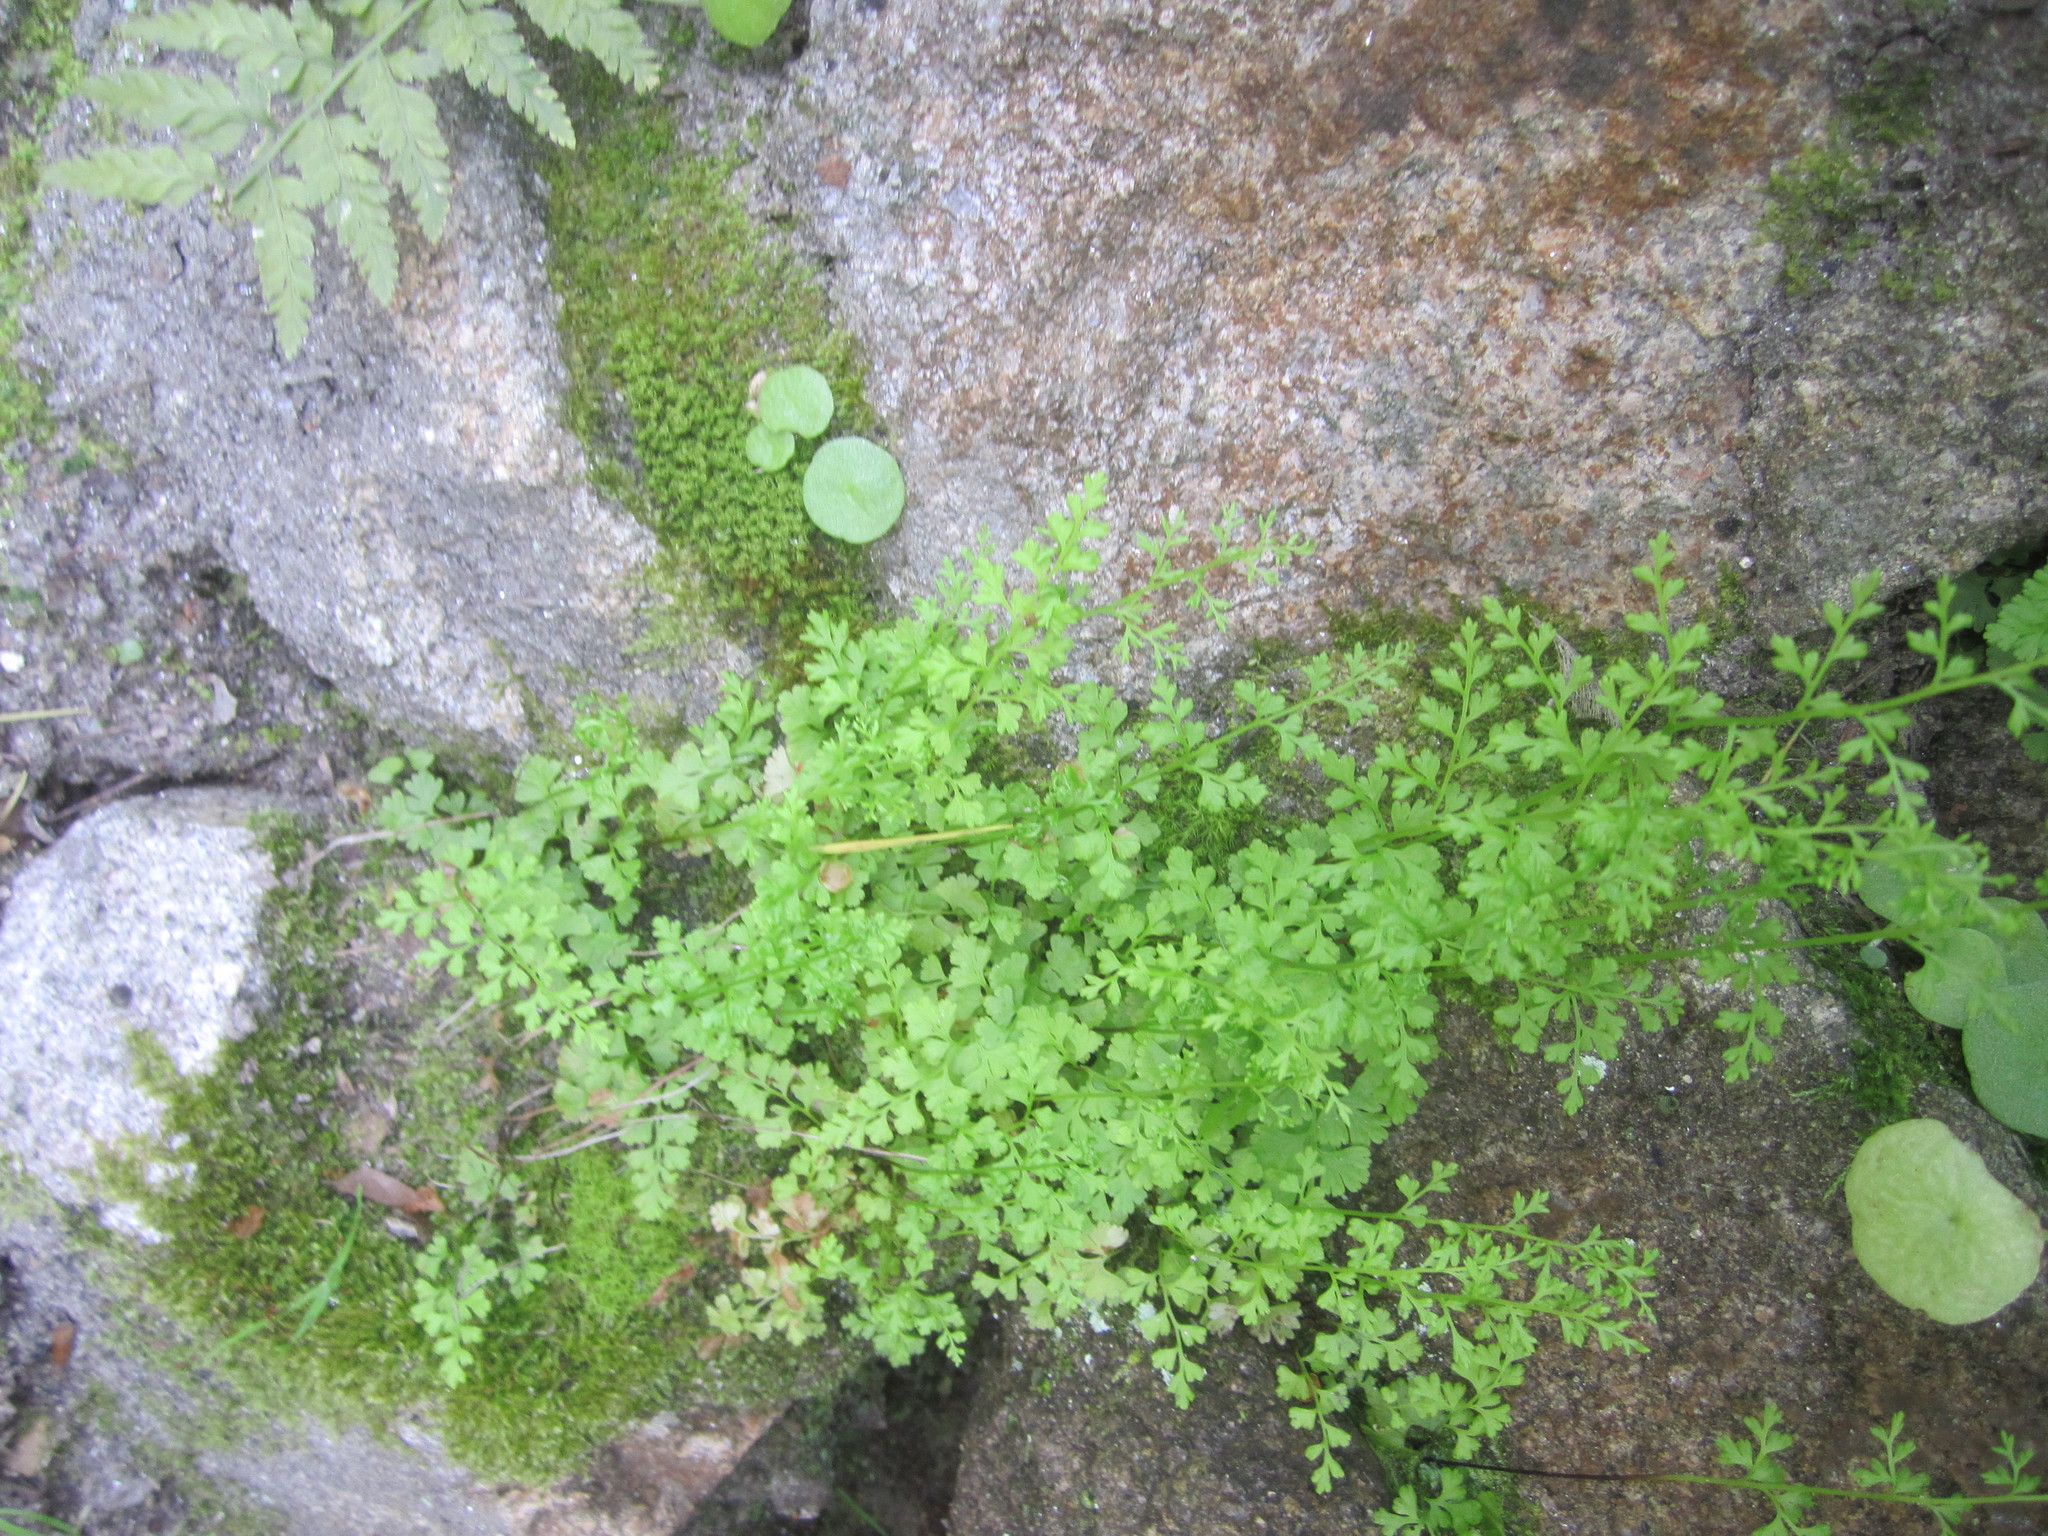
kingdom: Plantae
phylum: Tracheophyta
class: Polypodiopsida
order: Polypodiales
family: Pteridaceae
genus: Anogramma
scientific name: Anogramma leptophylla
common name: Jersey fern
